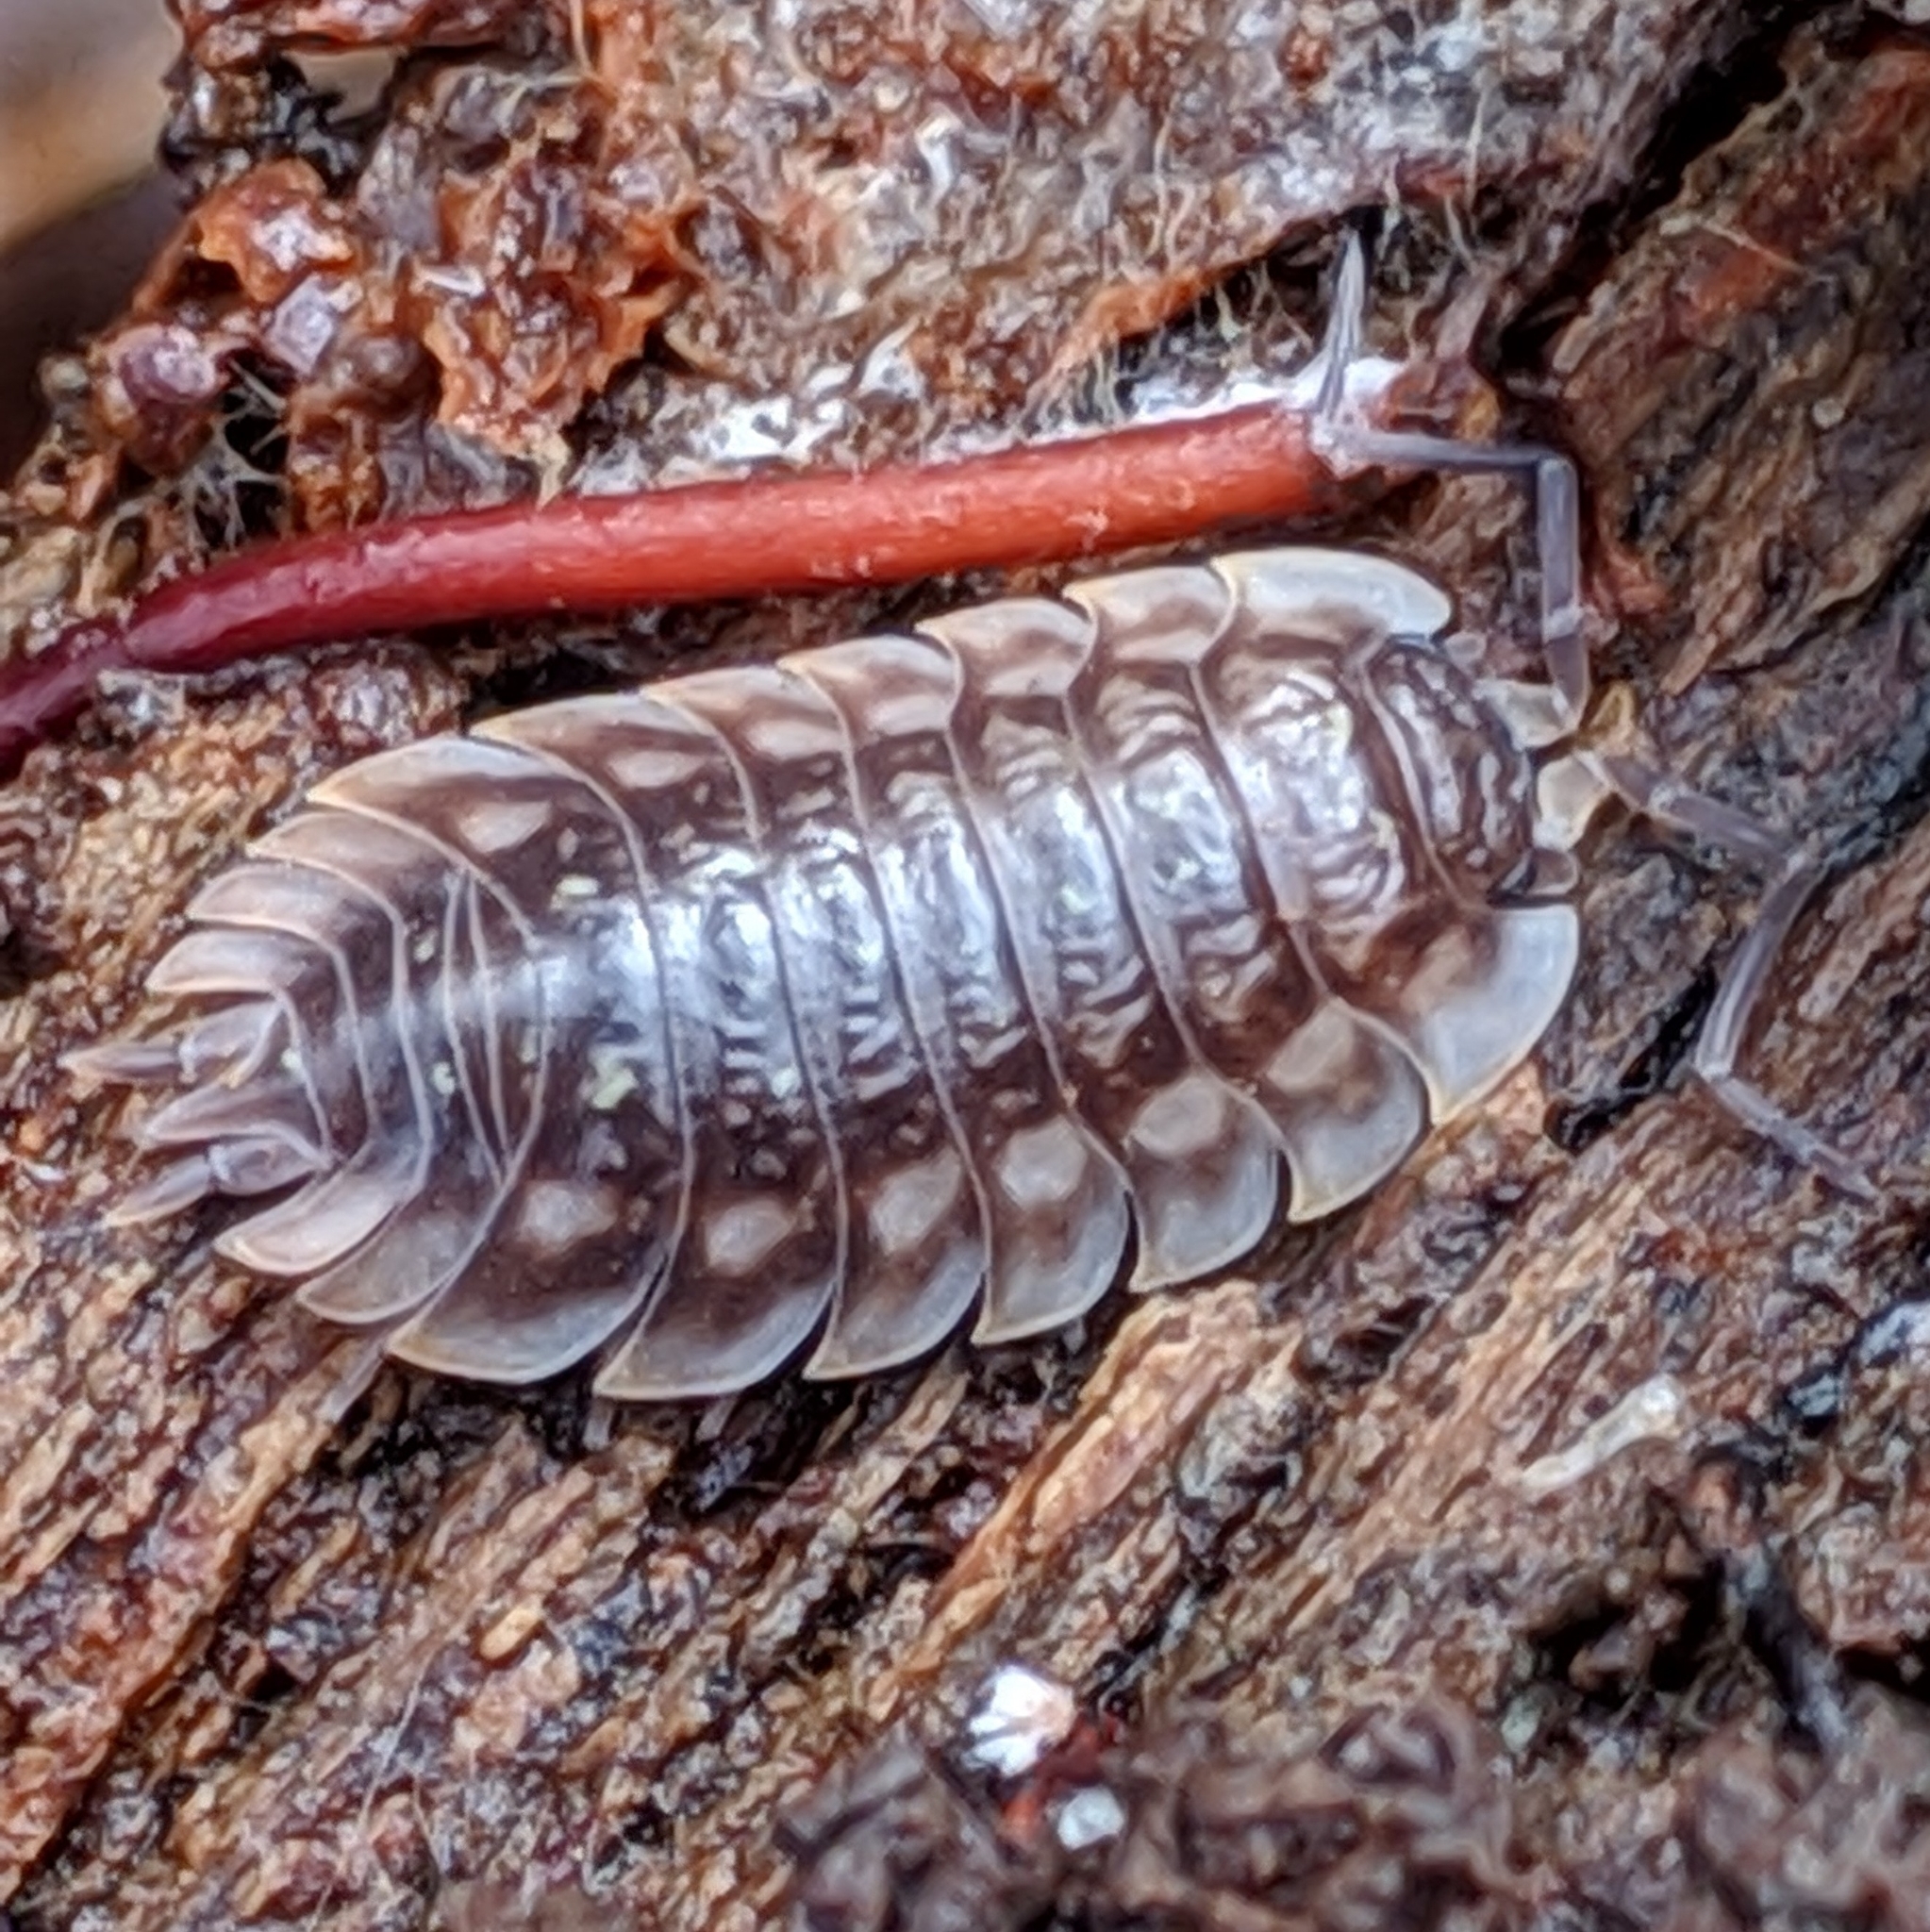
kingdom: Animalia
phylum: Arthropoda
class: Malacostraca
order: Isopoda
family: Oniscidae
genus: Oniscus
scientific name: Oniscus asellus
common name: Common shiny woodlouse
